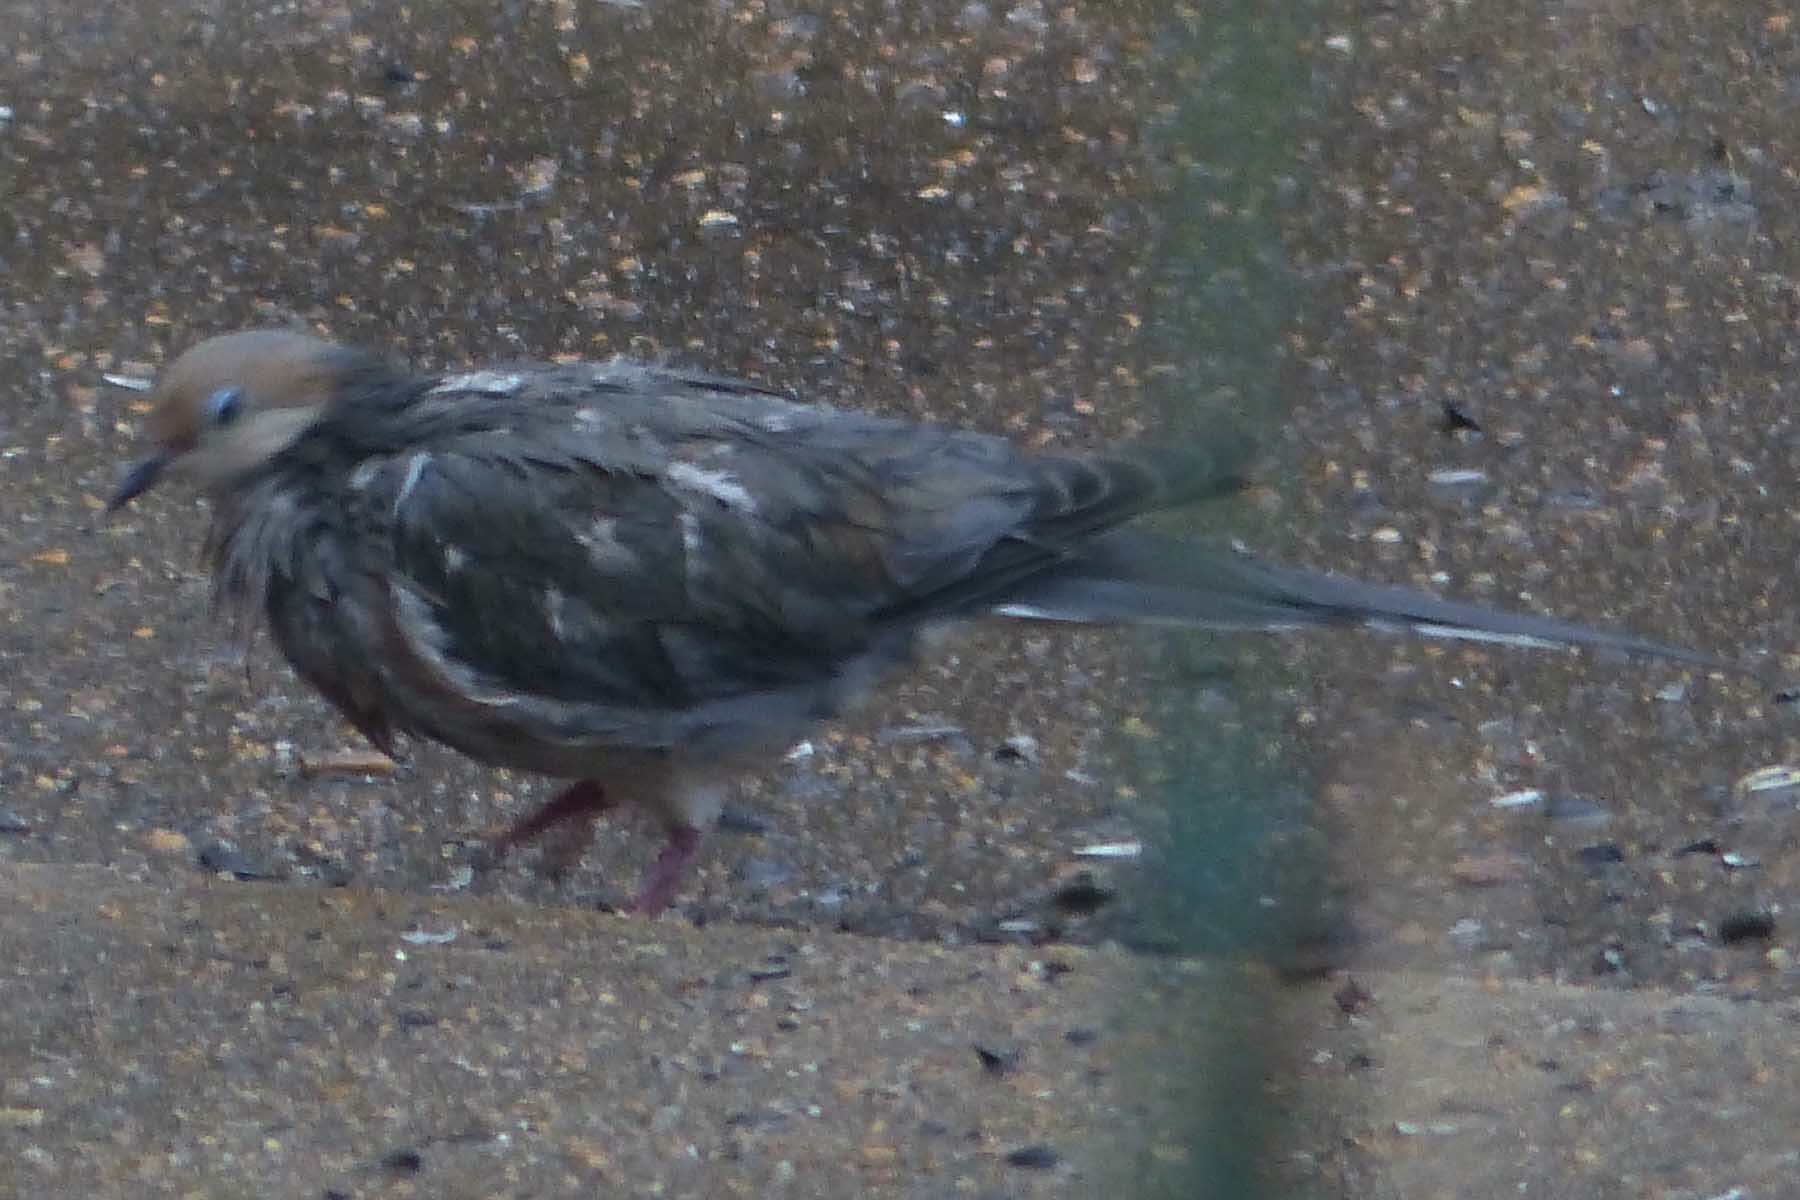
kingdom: Animalia
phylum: Chordata
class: Aves
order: Columbiformes
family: Columbidae
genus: Zenaida
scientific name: Zenaida macroura
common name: Mourning dove
